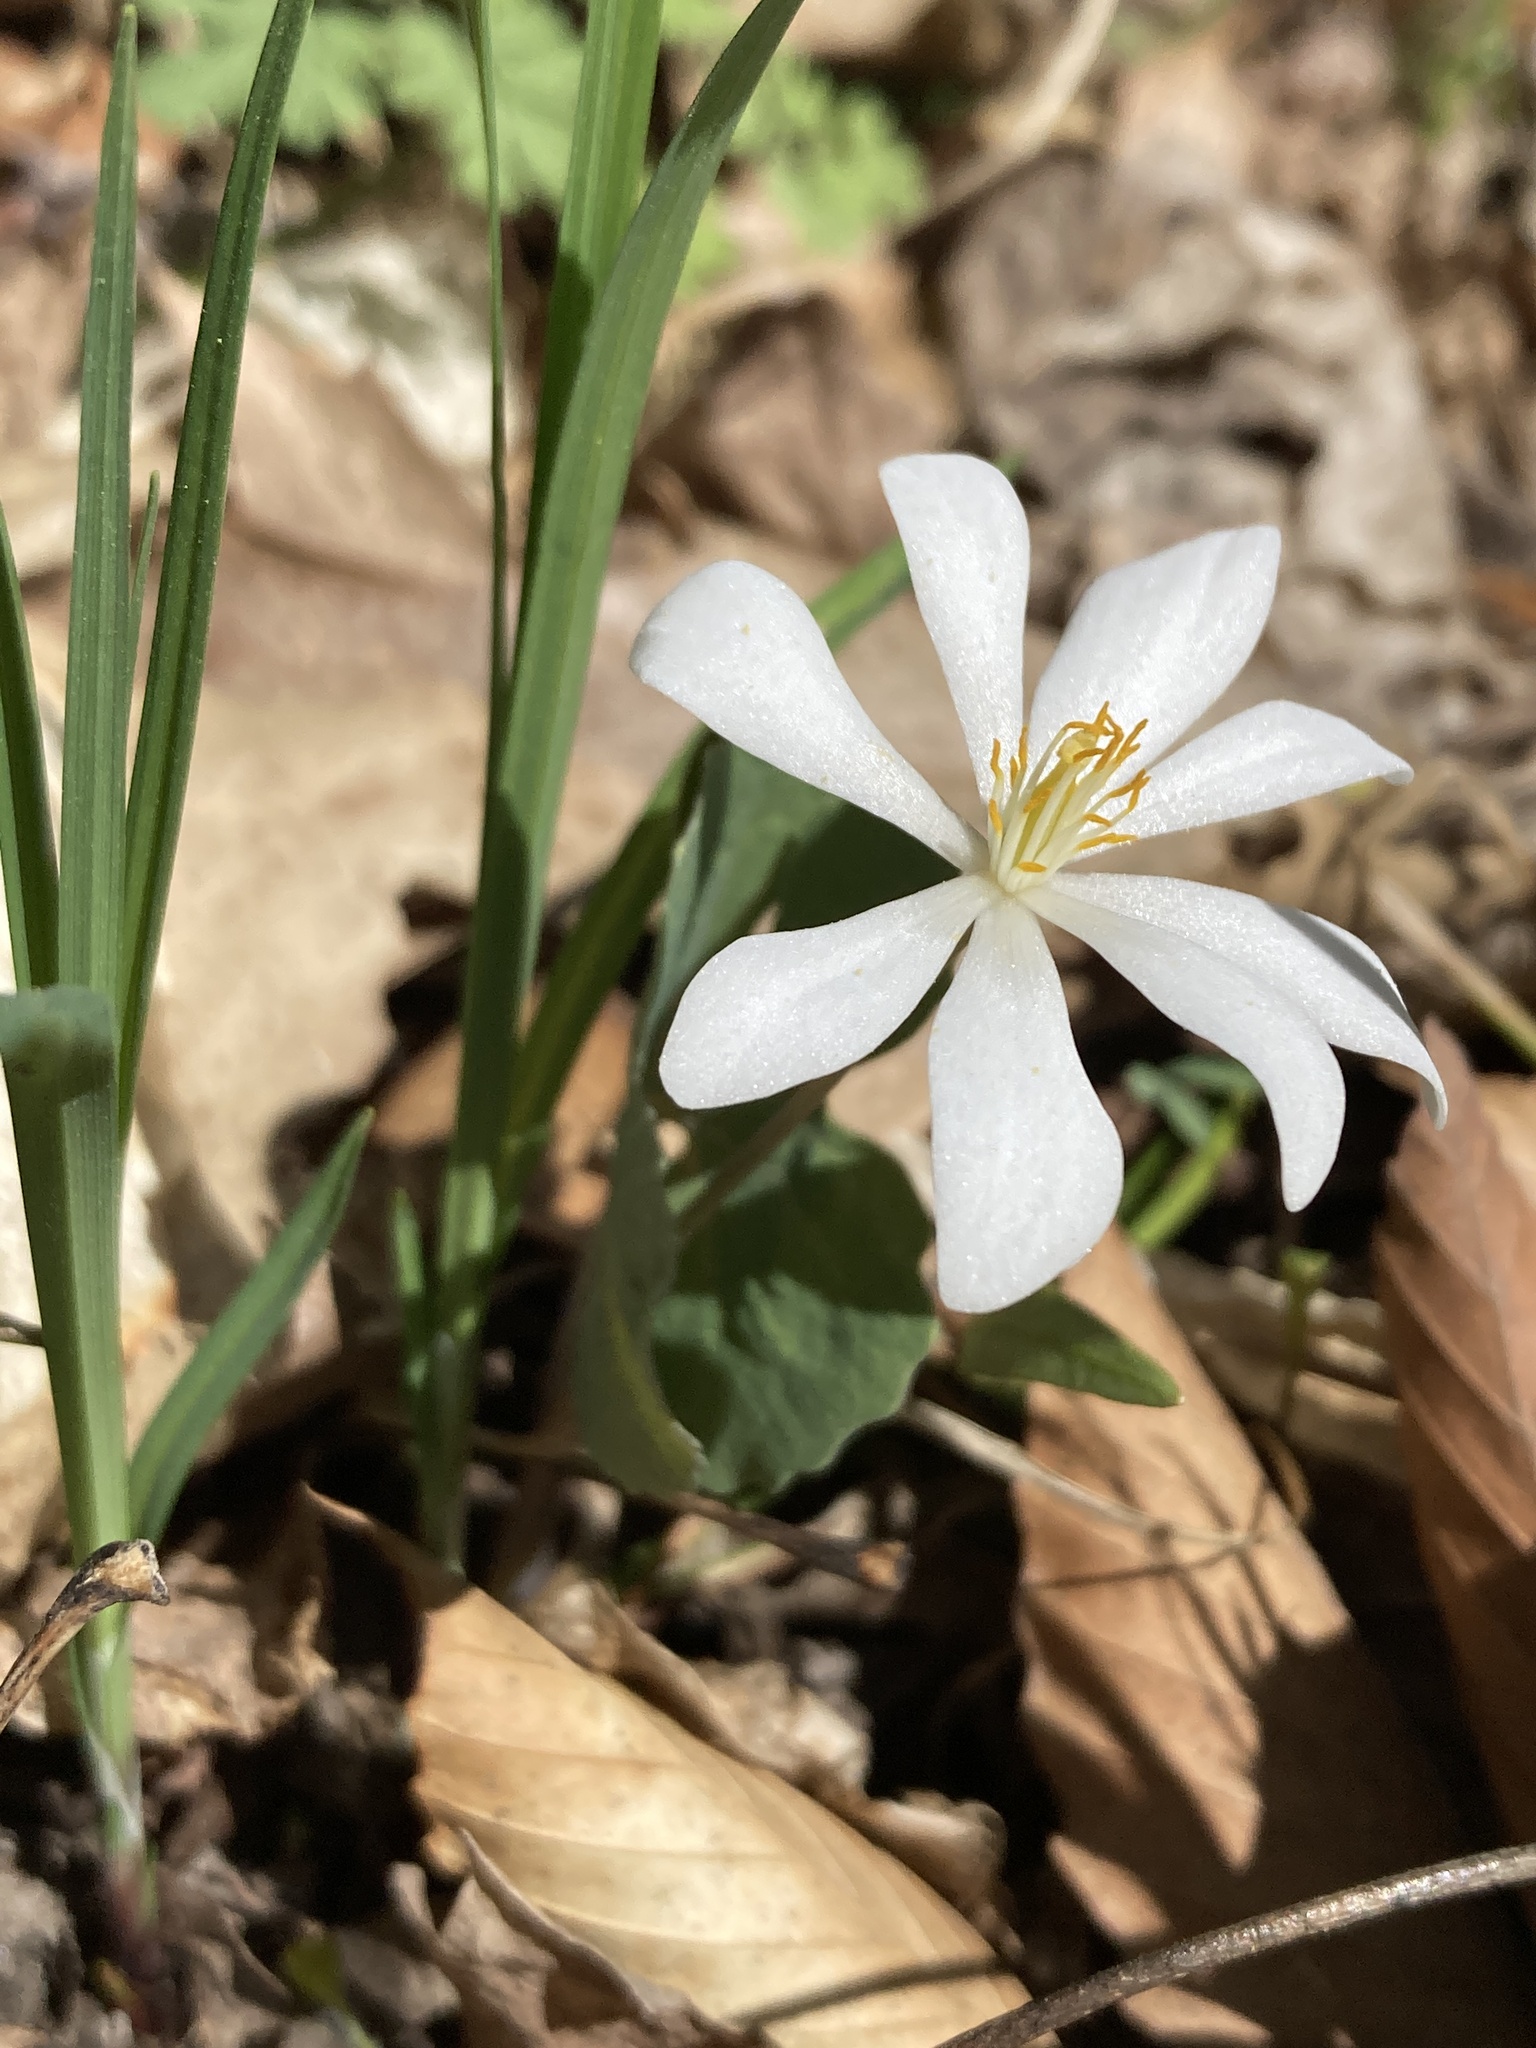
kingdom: Plantae
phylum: Tracheophyta
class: Magnoliopsida
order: Ranunculales
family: Papaveraceae
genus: Sanguinaria
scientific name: Sanguinaria canadensis
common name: Bloodroot
